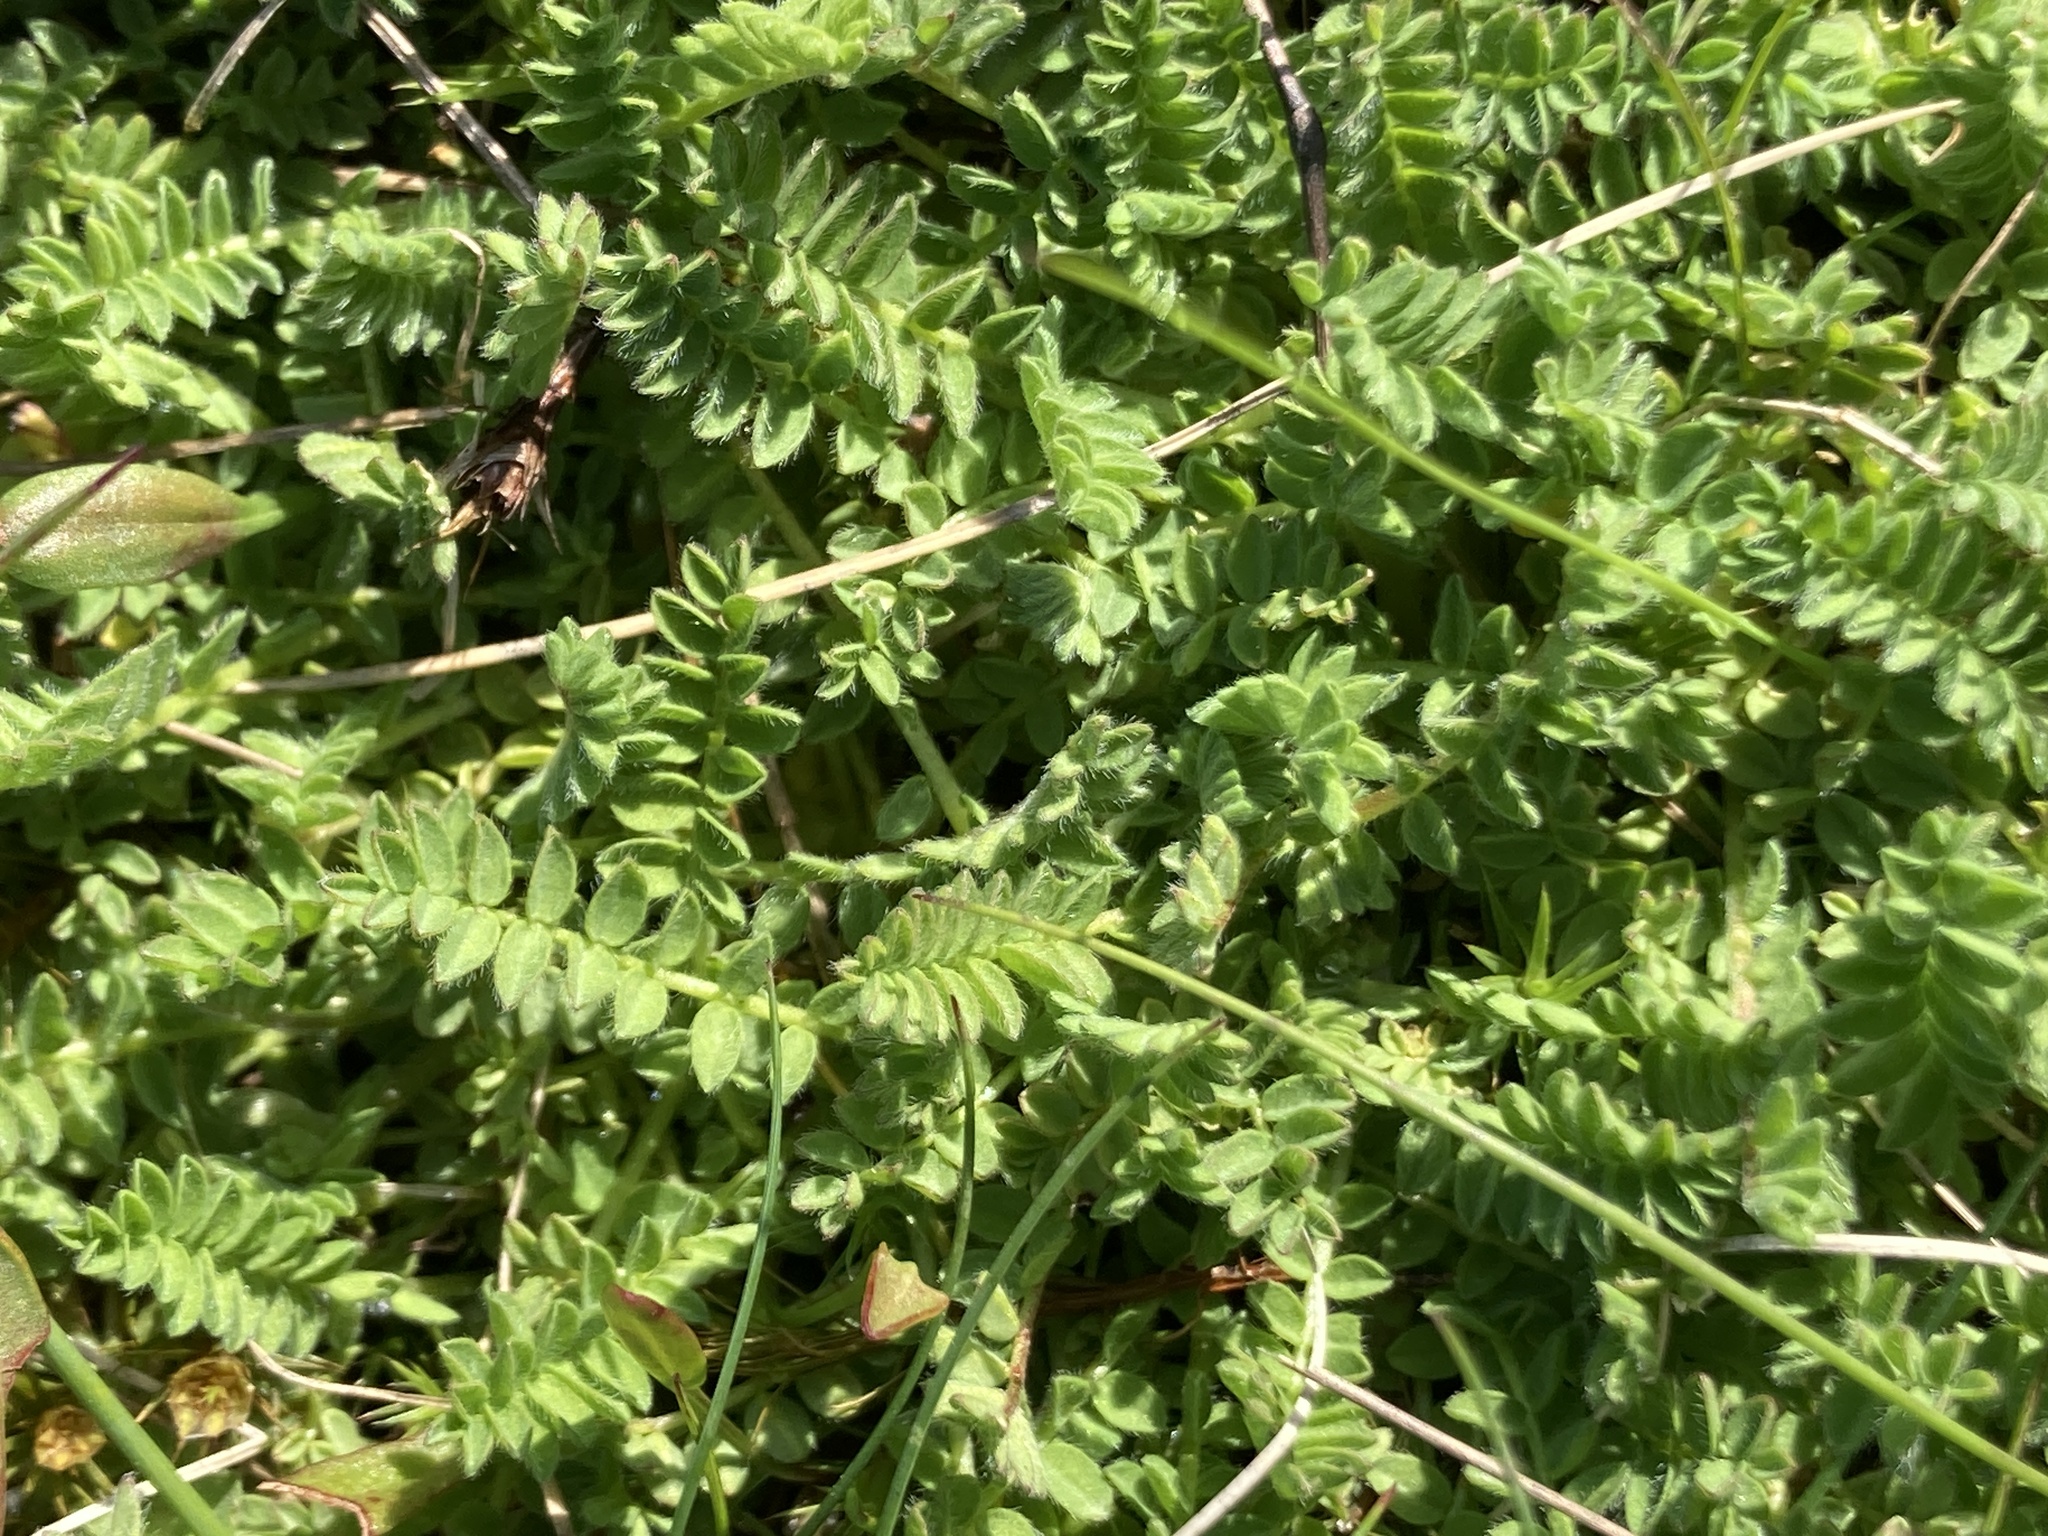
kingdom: Plantae
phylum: Tracheophyta
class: Magnoliopsida
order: Fabales
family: Fabaceae
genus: Ornithopus
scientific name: Ornithopus perpusillus
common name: Bird's-foot
